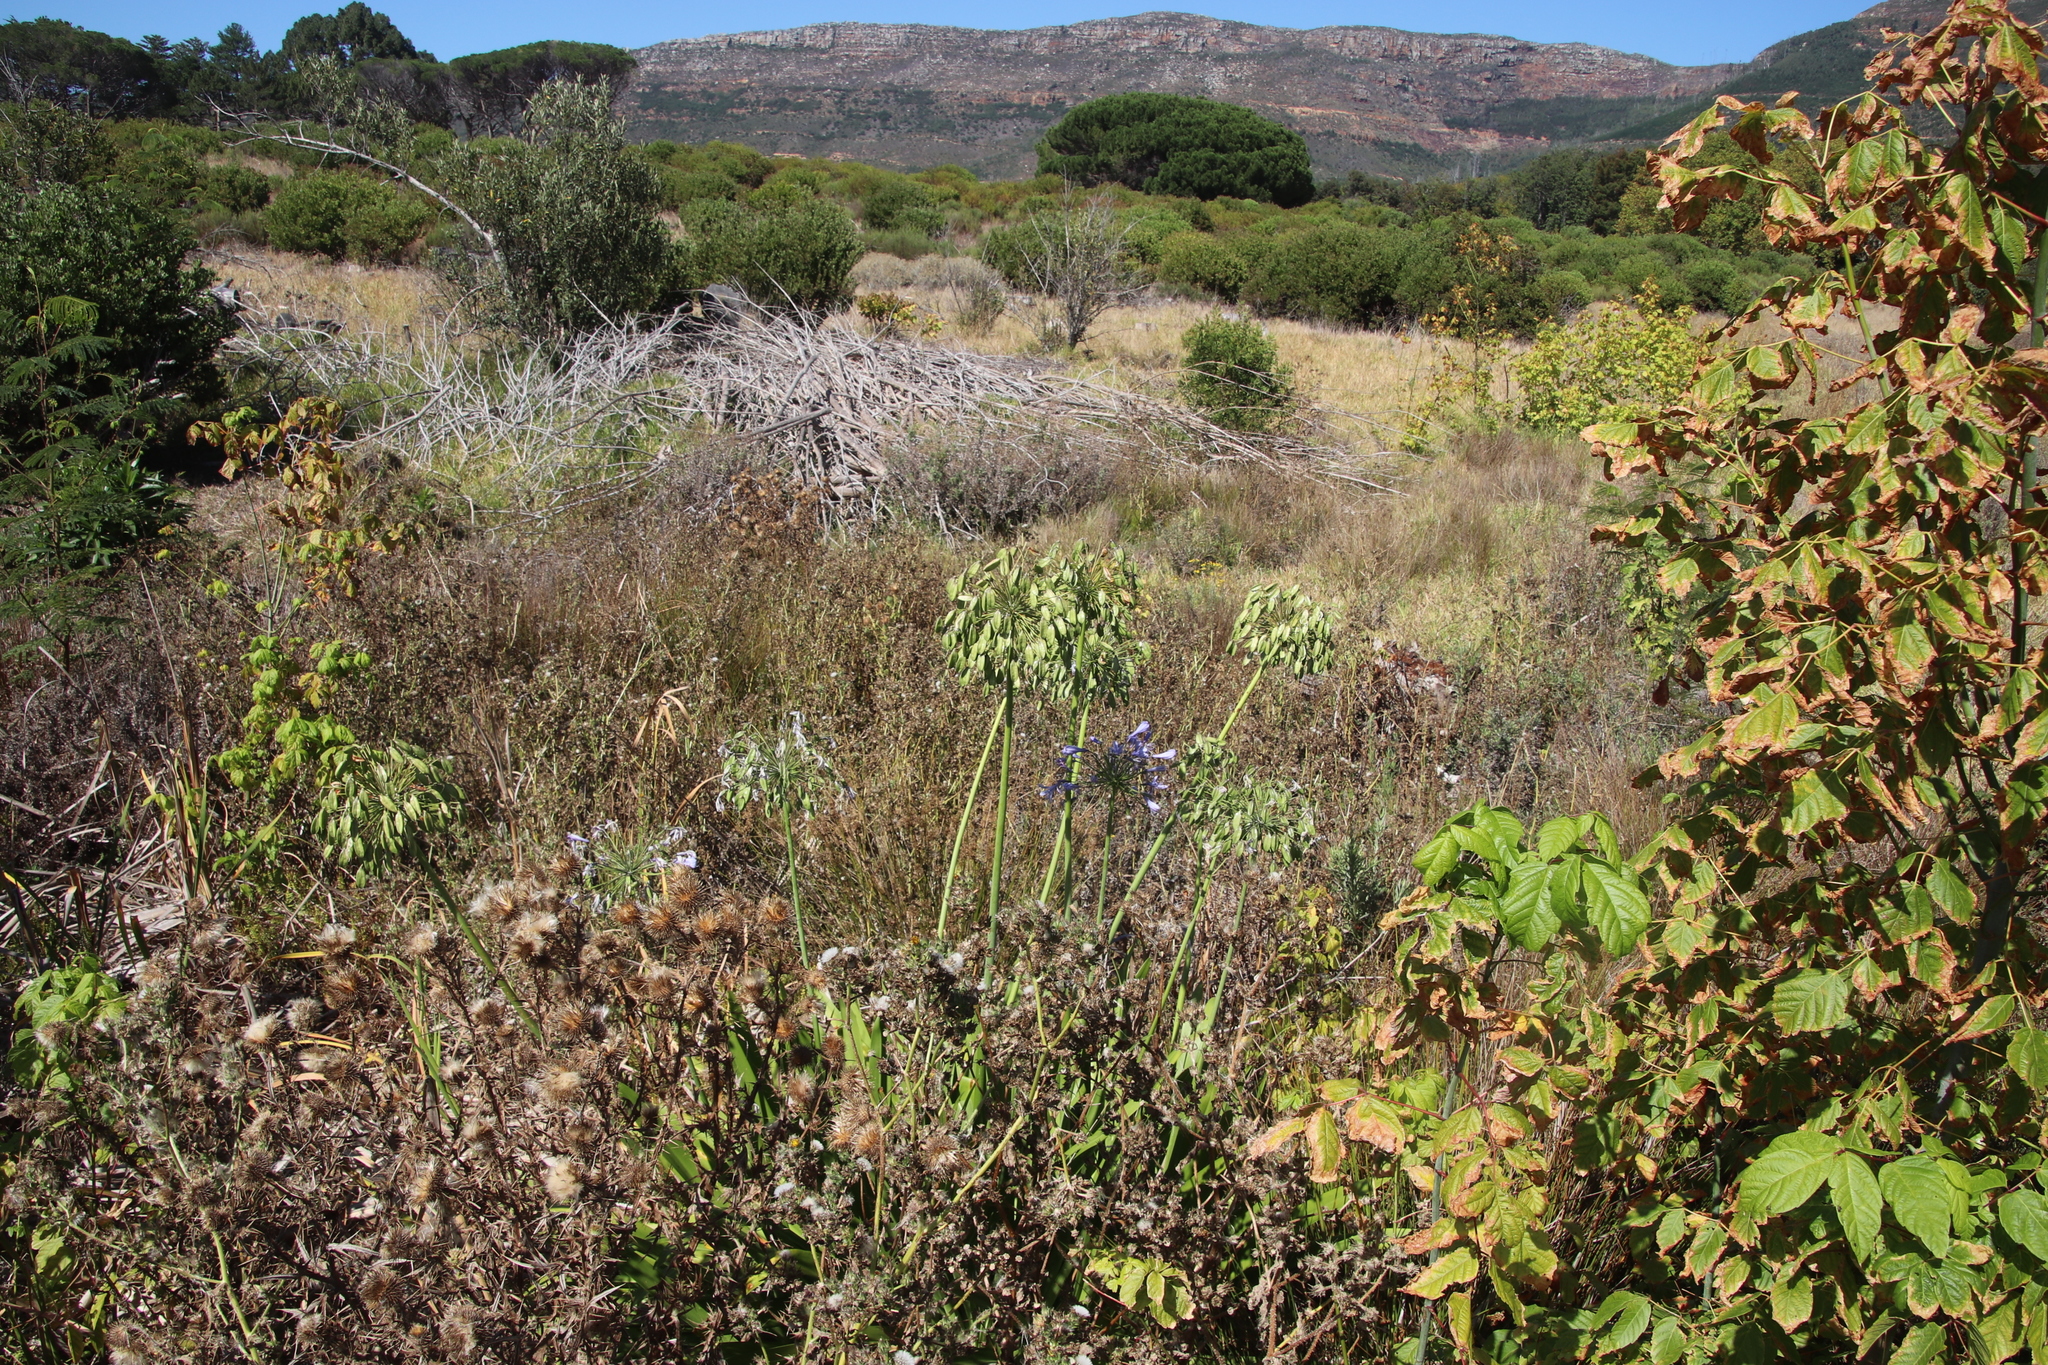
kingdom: Plantae
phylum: Tracheophyta
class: Liliopsida
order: Asparagales
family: Amaryllidaceae
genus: Agapanthus
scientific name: Agapanthus praecox
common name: African-lily
